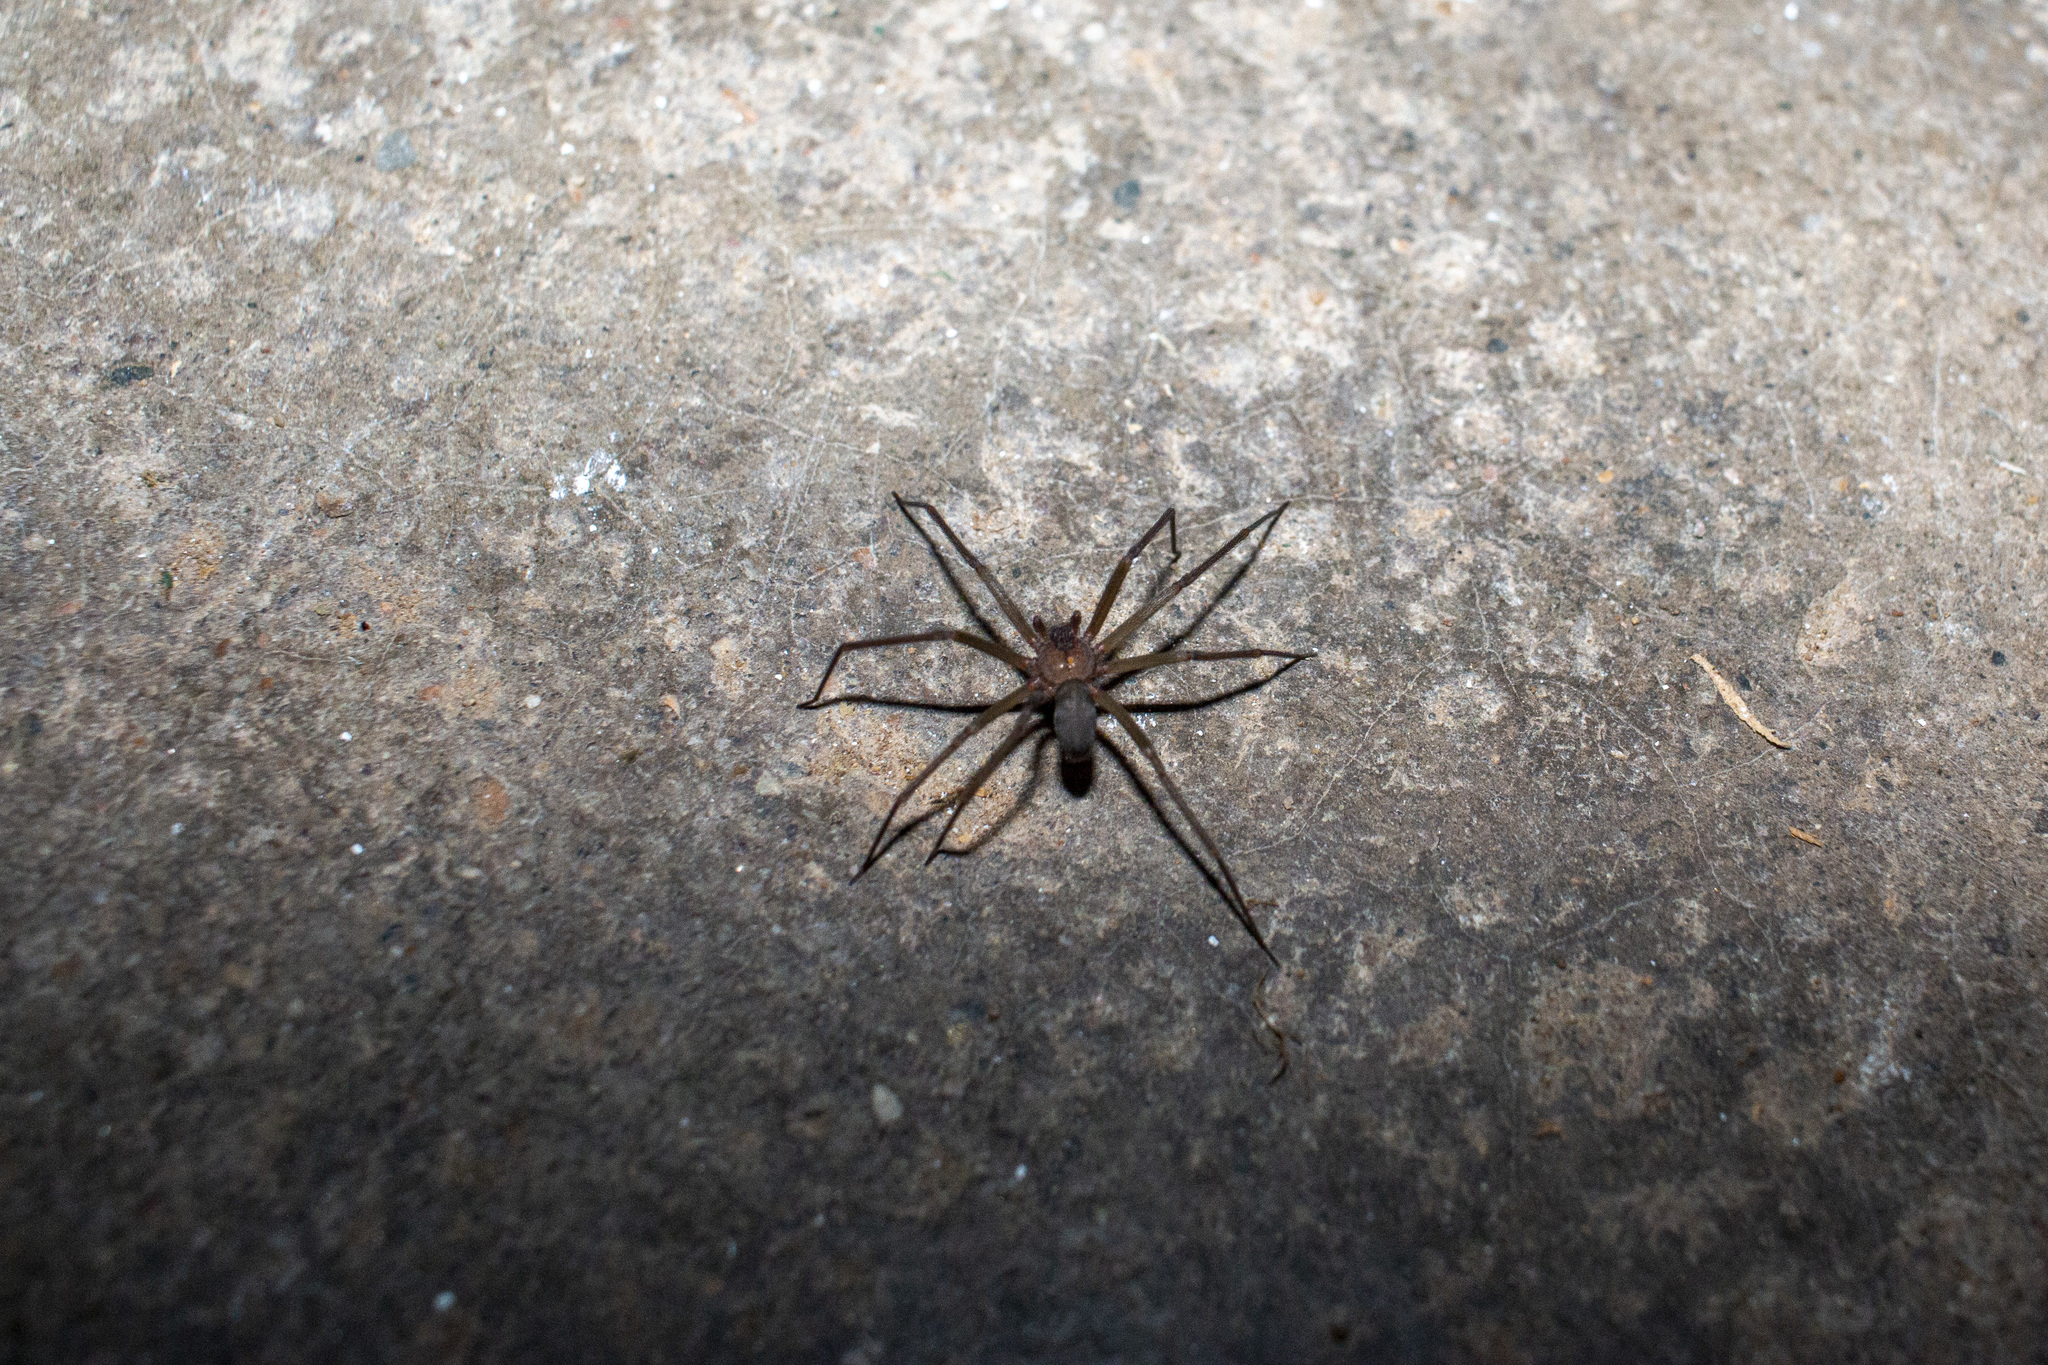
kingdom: Animalia
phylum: Arthropoda
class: Arachnida
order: Araneae
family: Sicariidae
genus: Loxosceles
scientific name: Loxosceles amazonica
